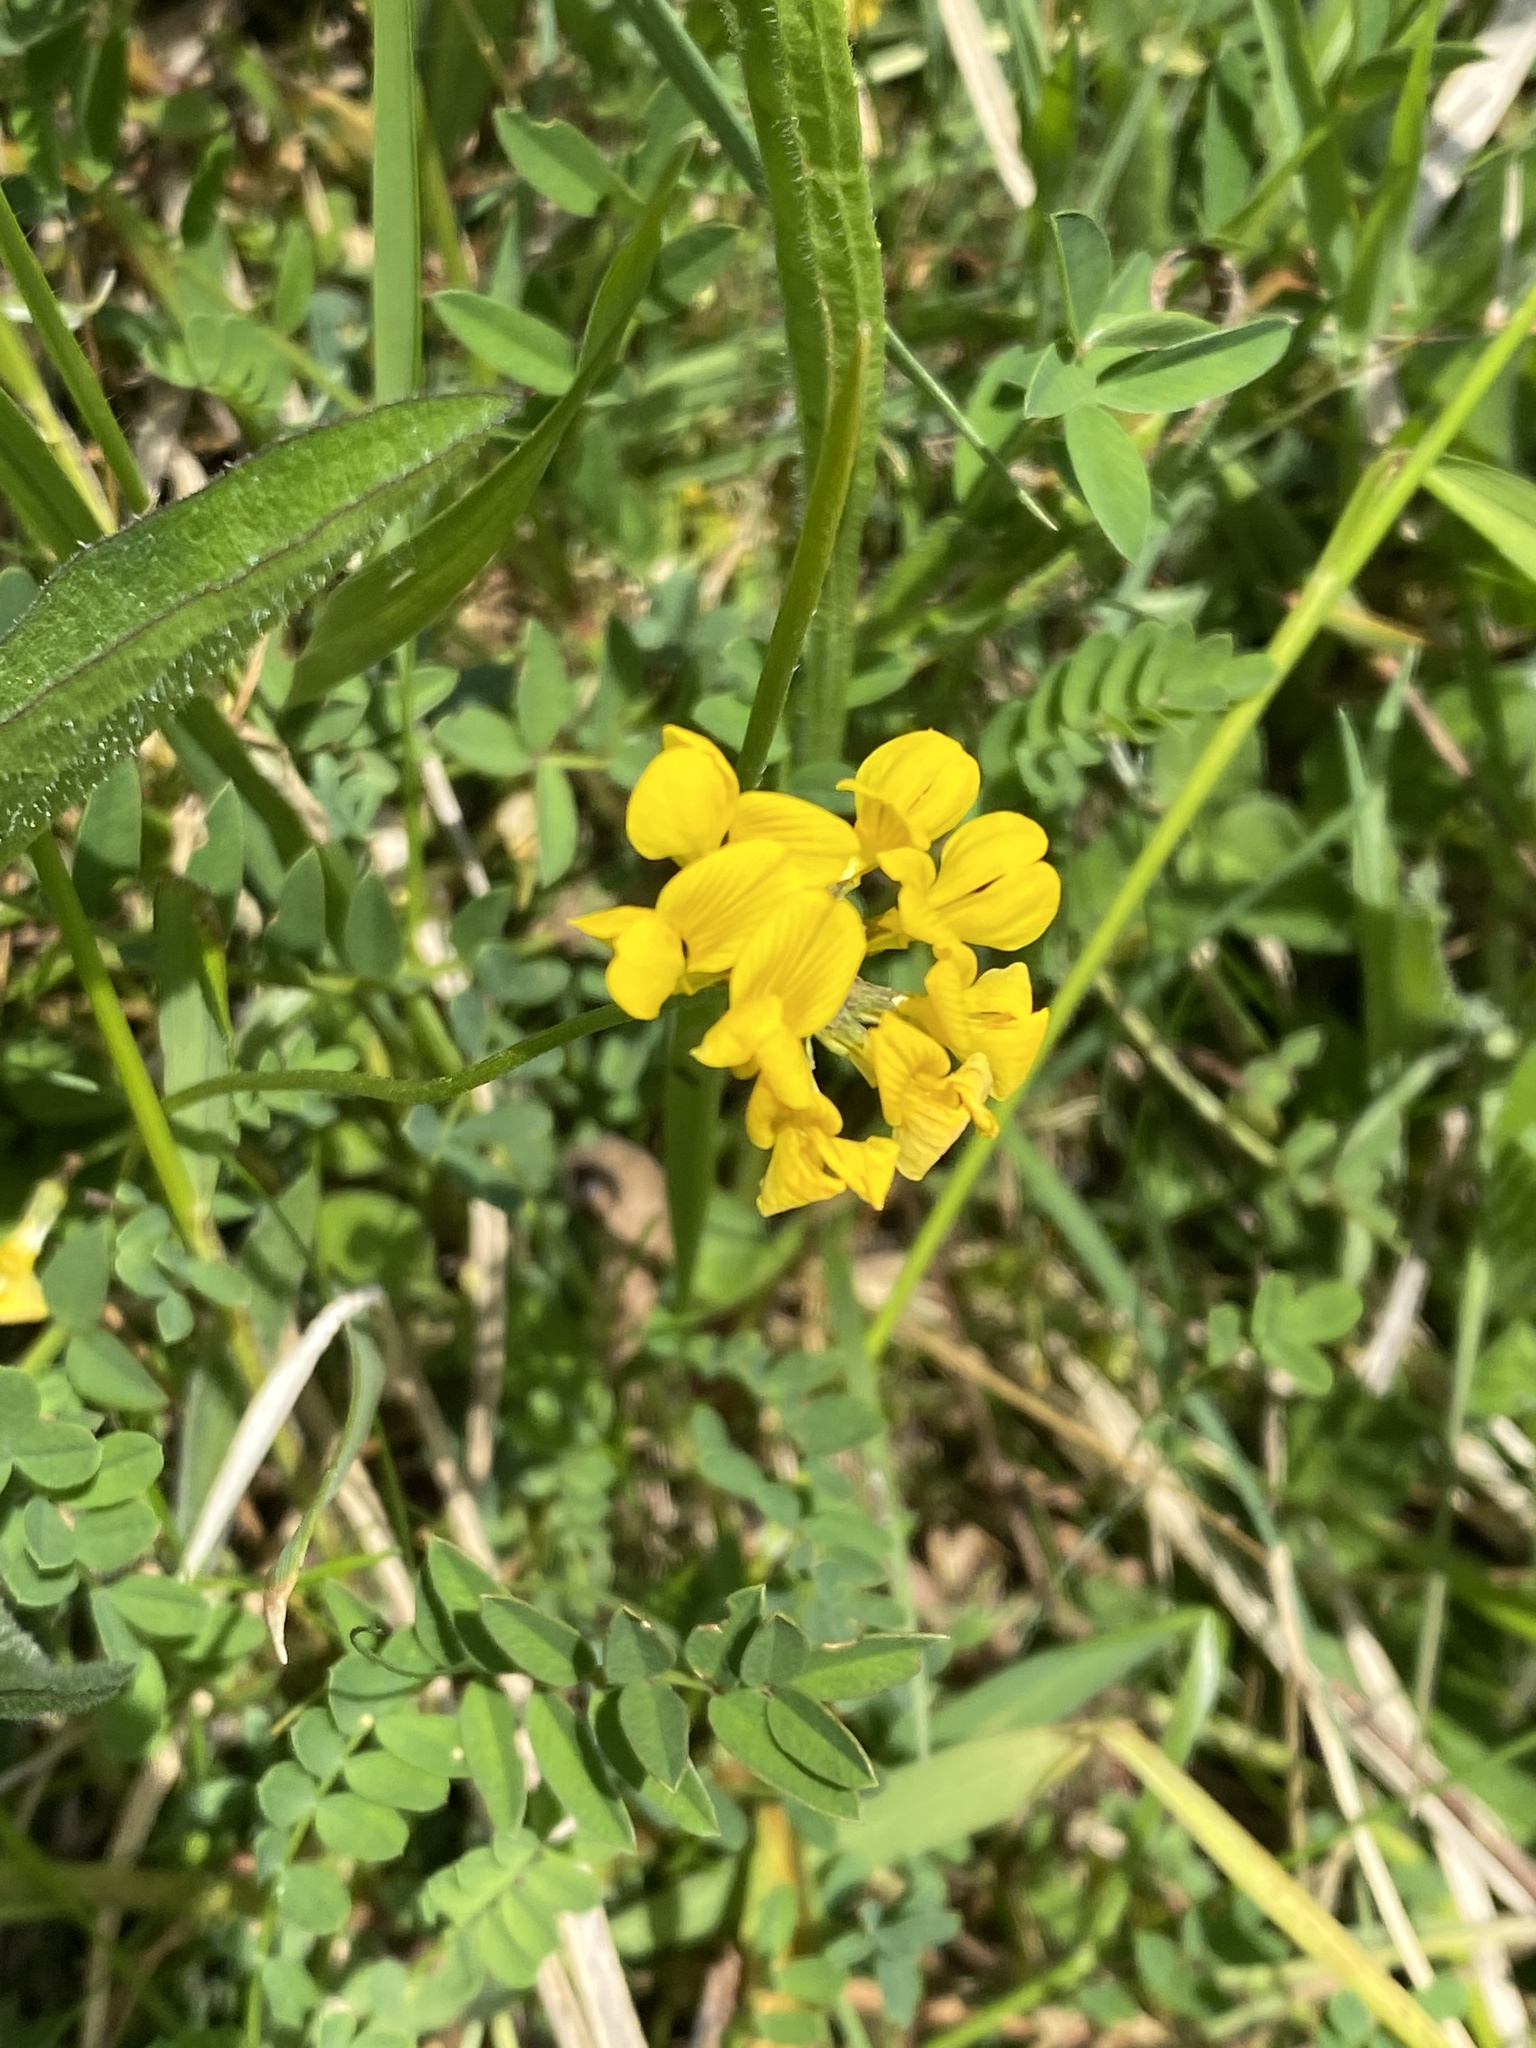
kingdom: Plantae
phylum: Tracheophyta
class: Magnoliopsida
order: Fabales
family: Fabaceae
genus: Hippocrepis
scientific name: Hippocrepis comosa
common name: Horseshoe vetch
